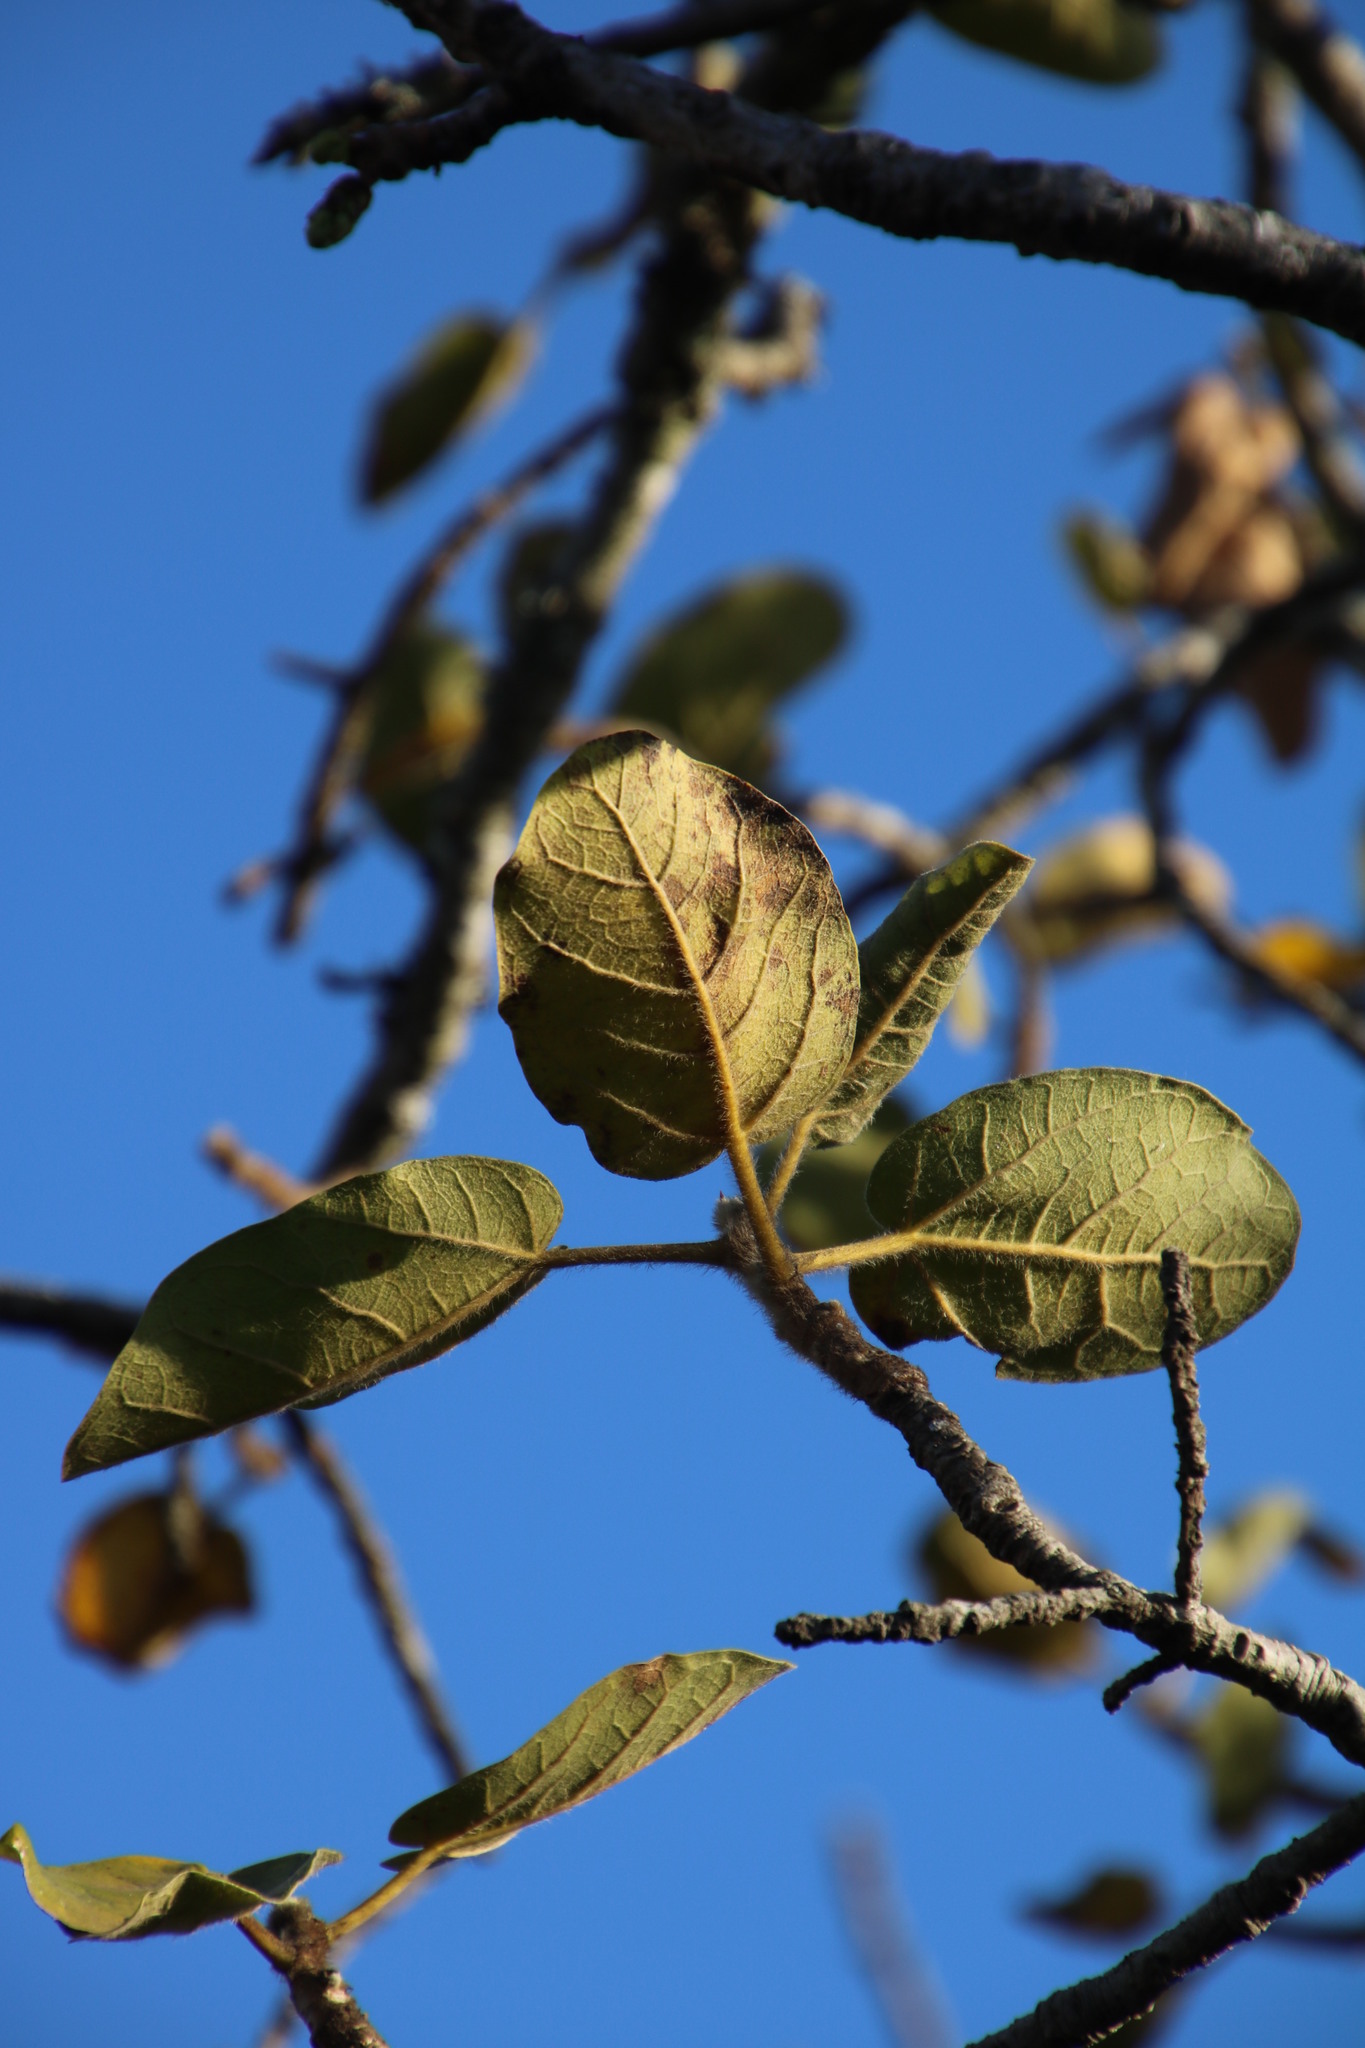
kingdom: Plantae
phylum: Tracheophyta
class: Magnoliopsida
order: Rosales
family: Moraceae
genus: Ficus
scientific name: Ficus glumosa
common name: Hairy rock fig
